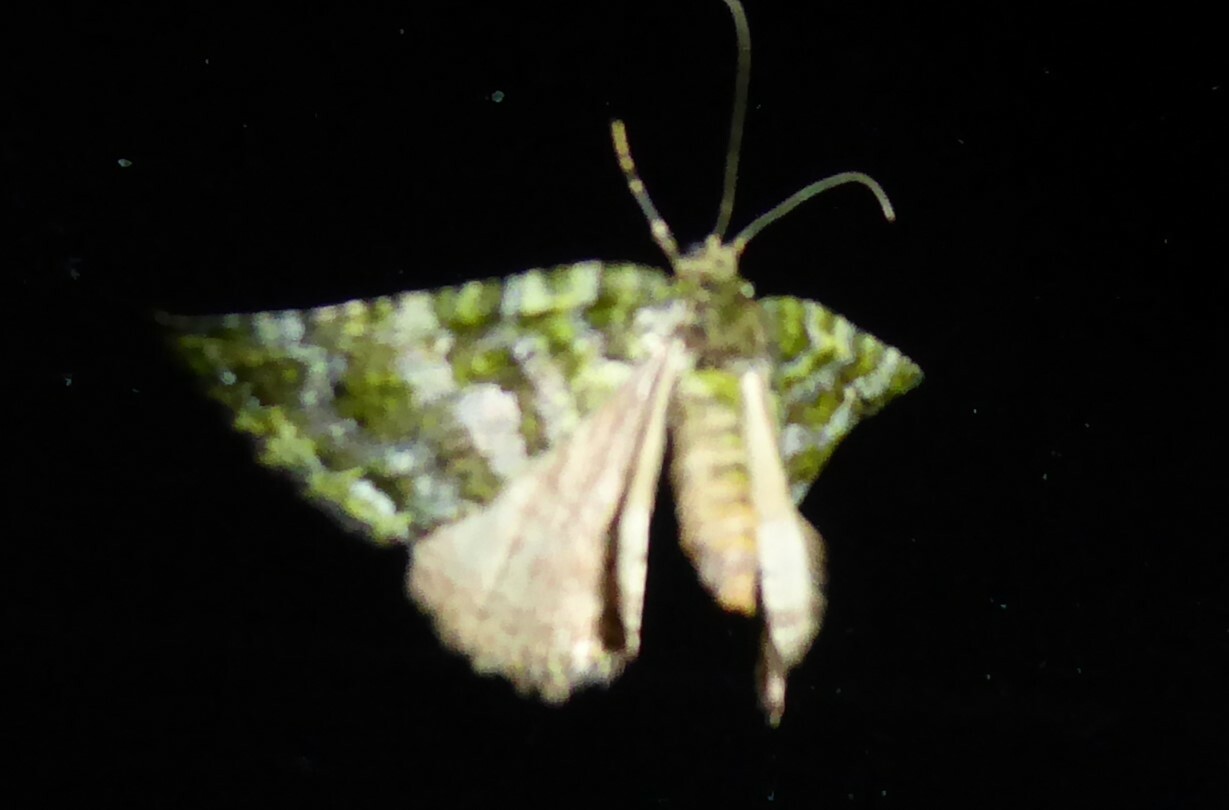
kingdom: Animalia
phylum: Arthropoda
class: Insecta
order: Lepidoptera
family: Geometridae
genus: Austrocidaria
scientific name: Austrocidaria similata
